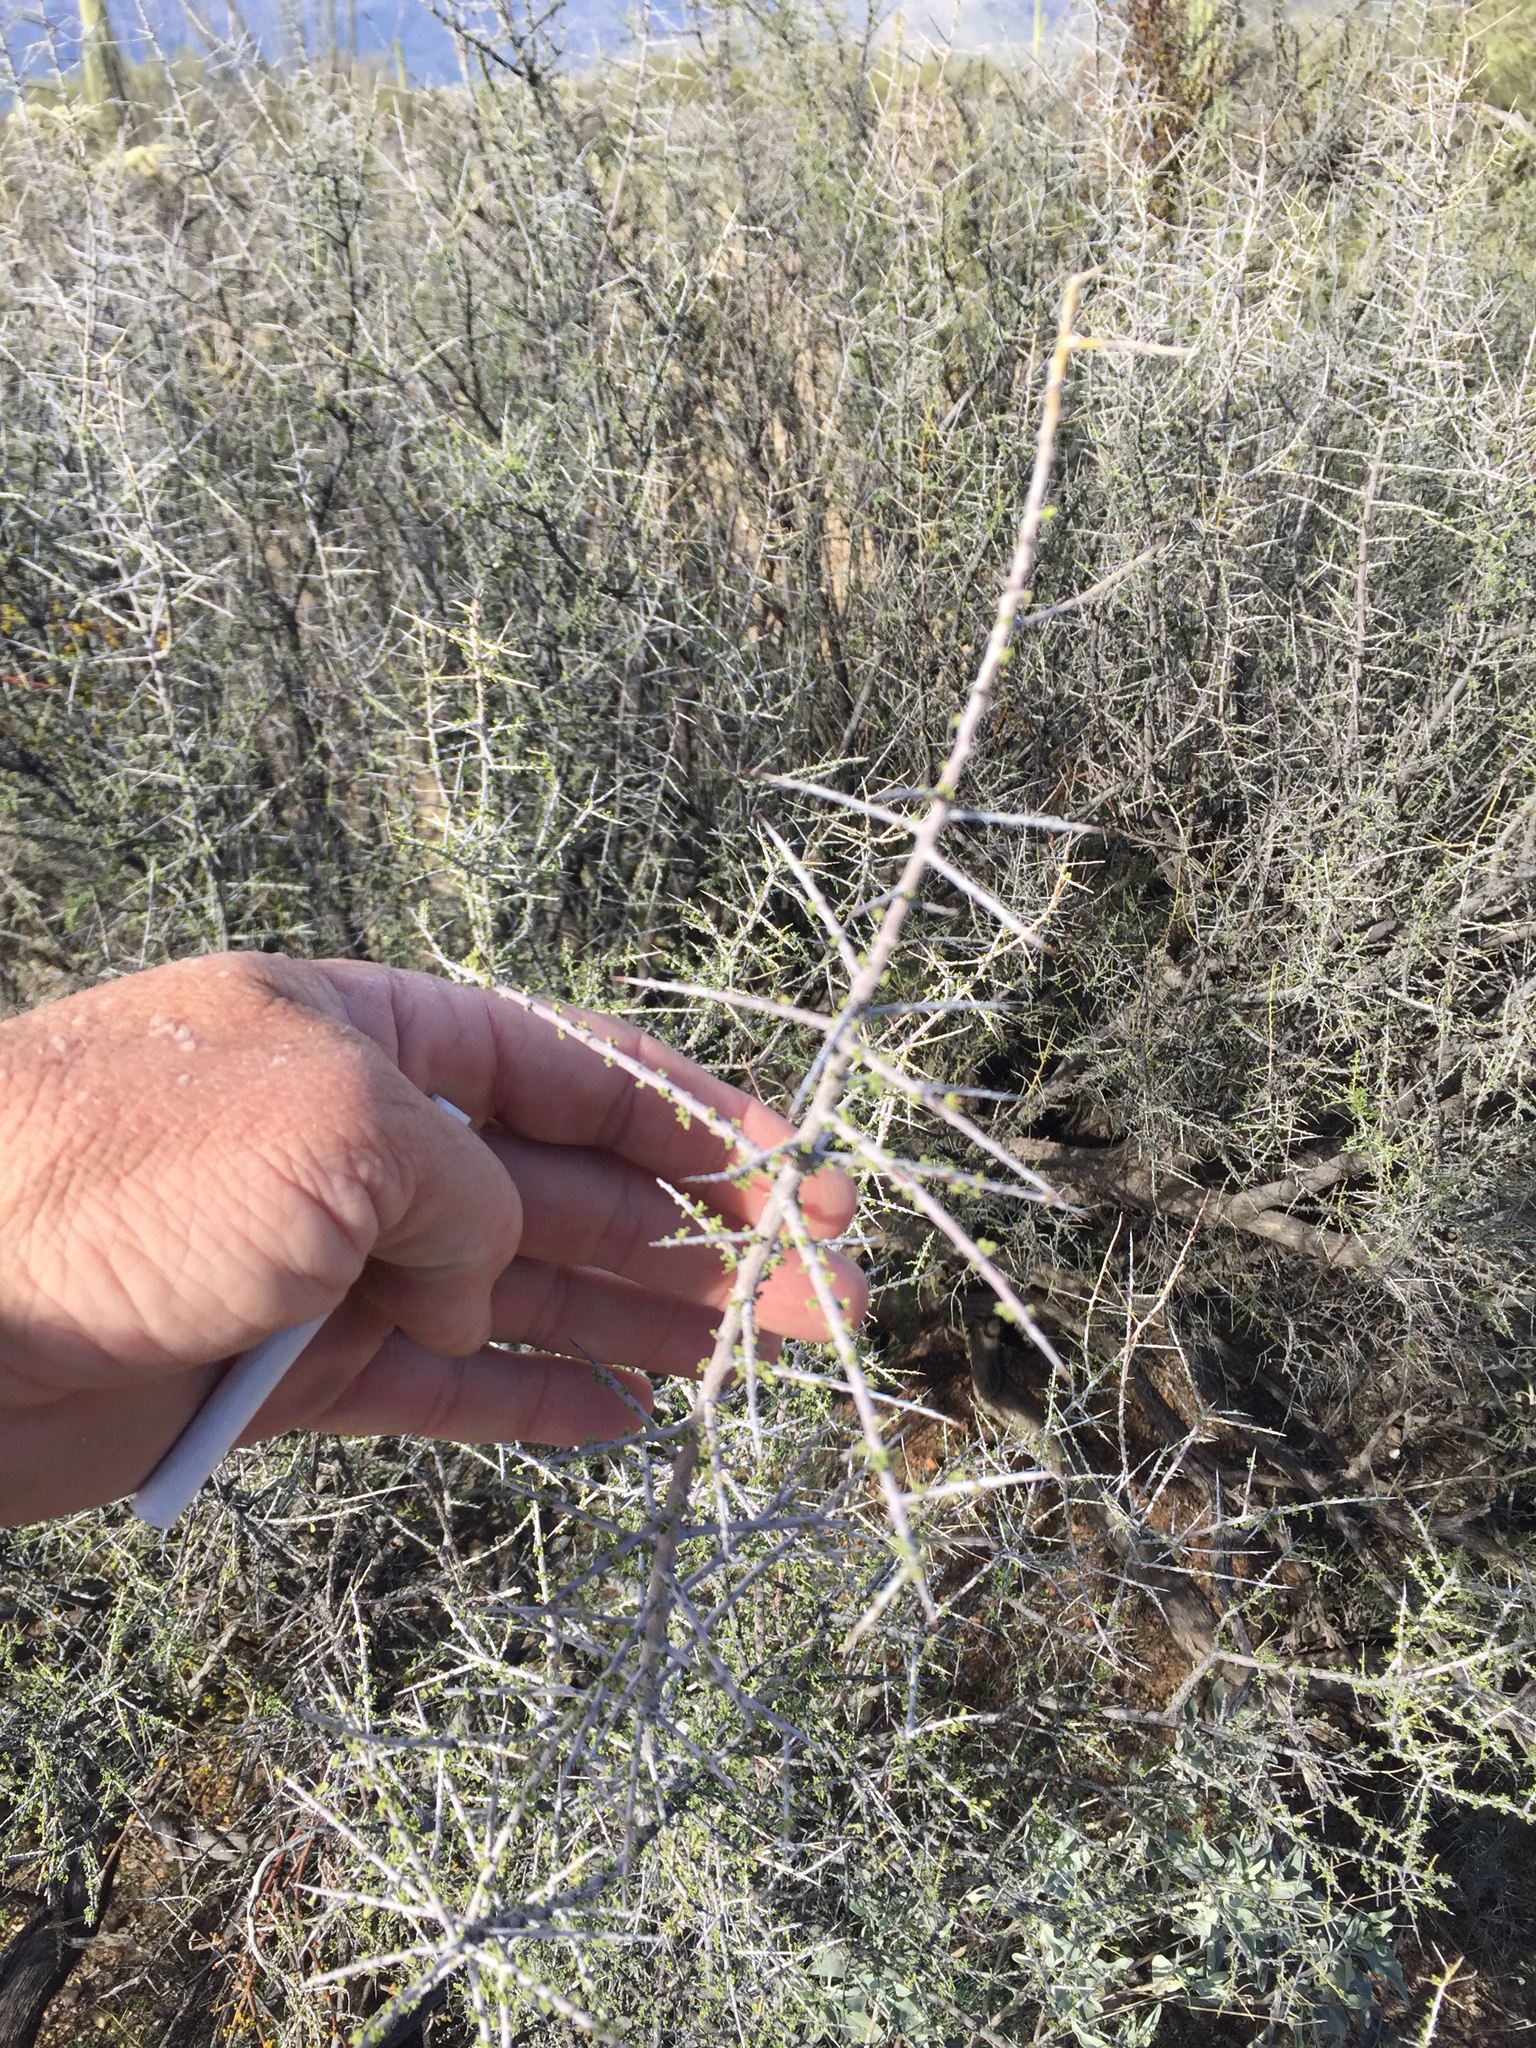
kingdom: Plantae
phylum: Tracheophyta
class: Magnoliopsida
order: Rosales
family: Rhamnaceae
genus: Sarcomphalus
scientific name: Sarcomphalus obtusifolius
